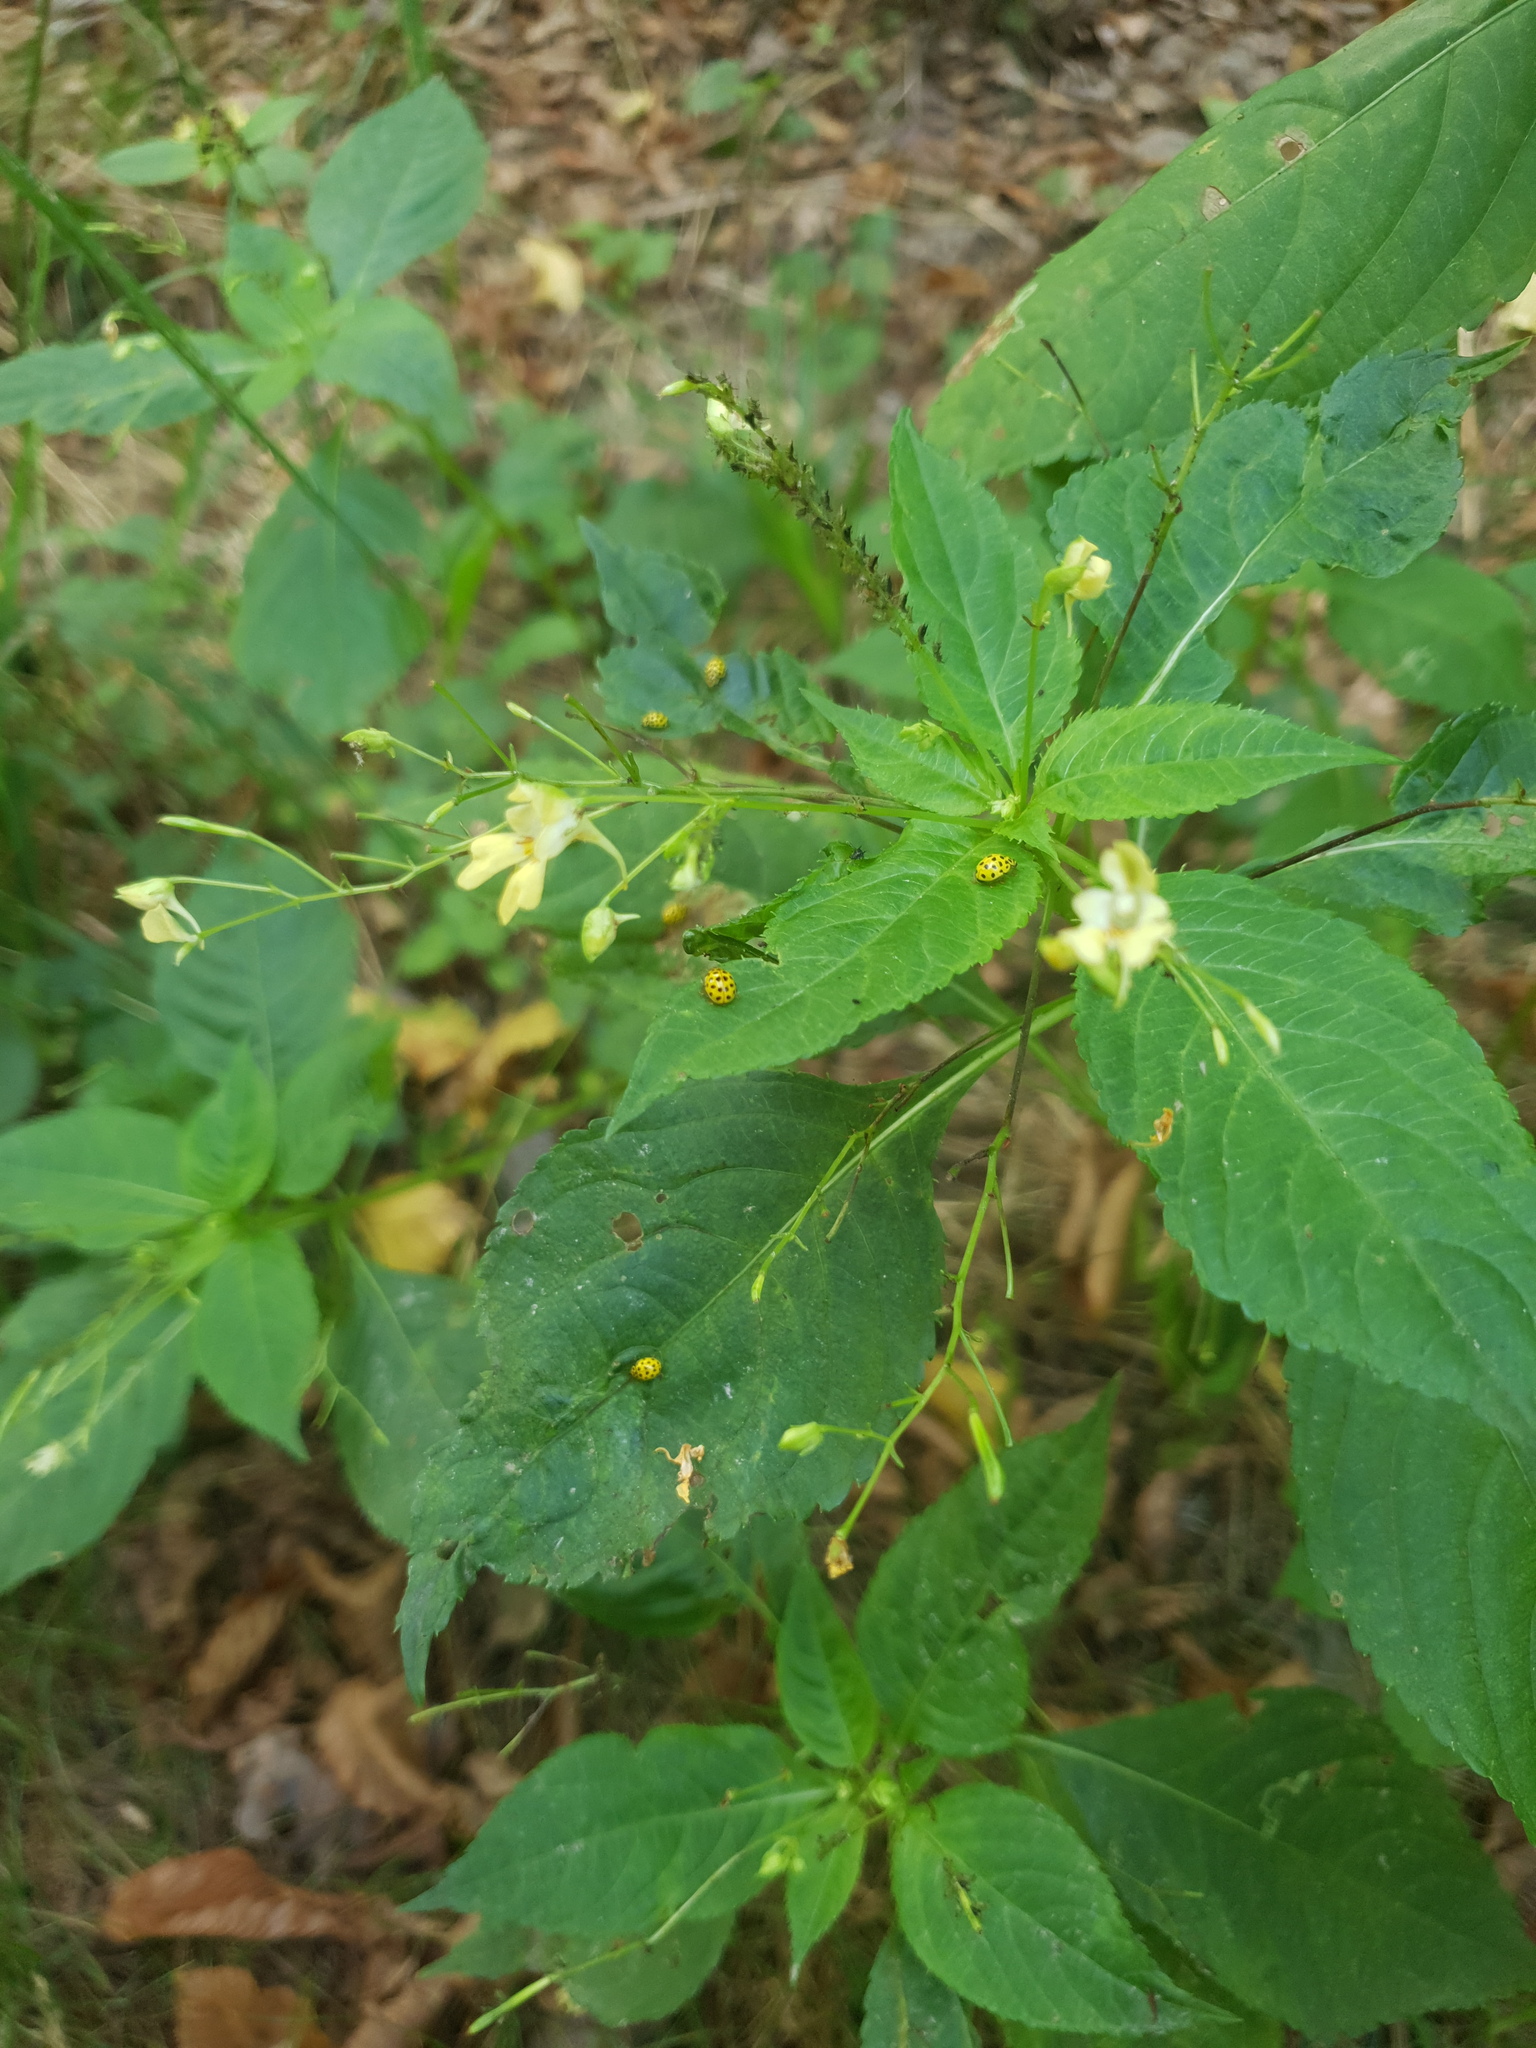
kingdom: Plantae
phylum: Tracheophyta
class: Magnoliopsida
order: Ericales
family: Balsaminaceae
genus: Impatiens
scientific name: Impatiens parviflora
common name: Small balsam
